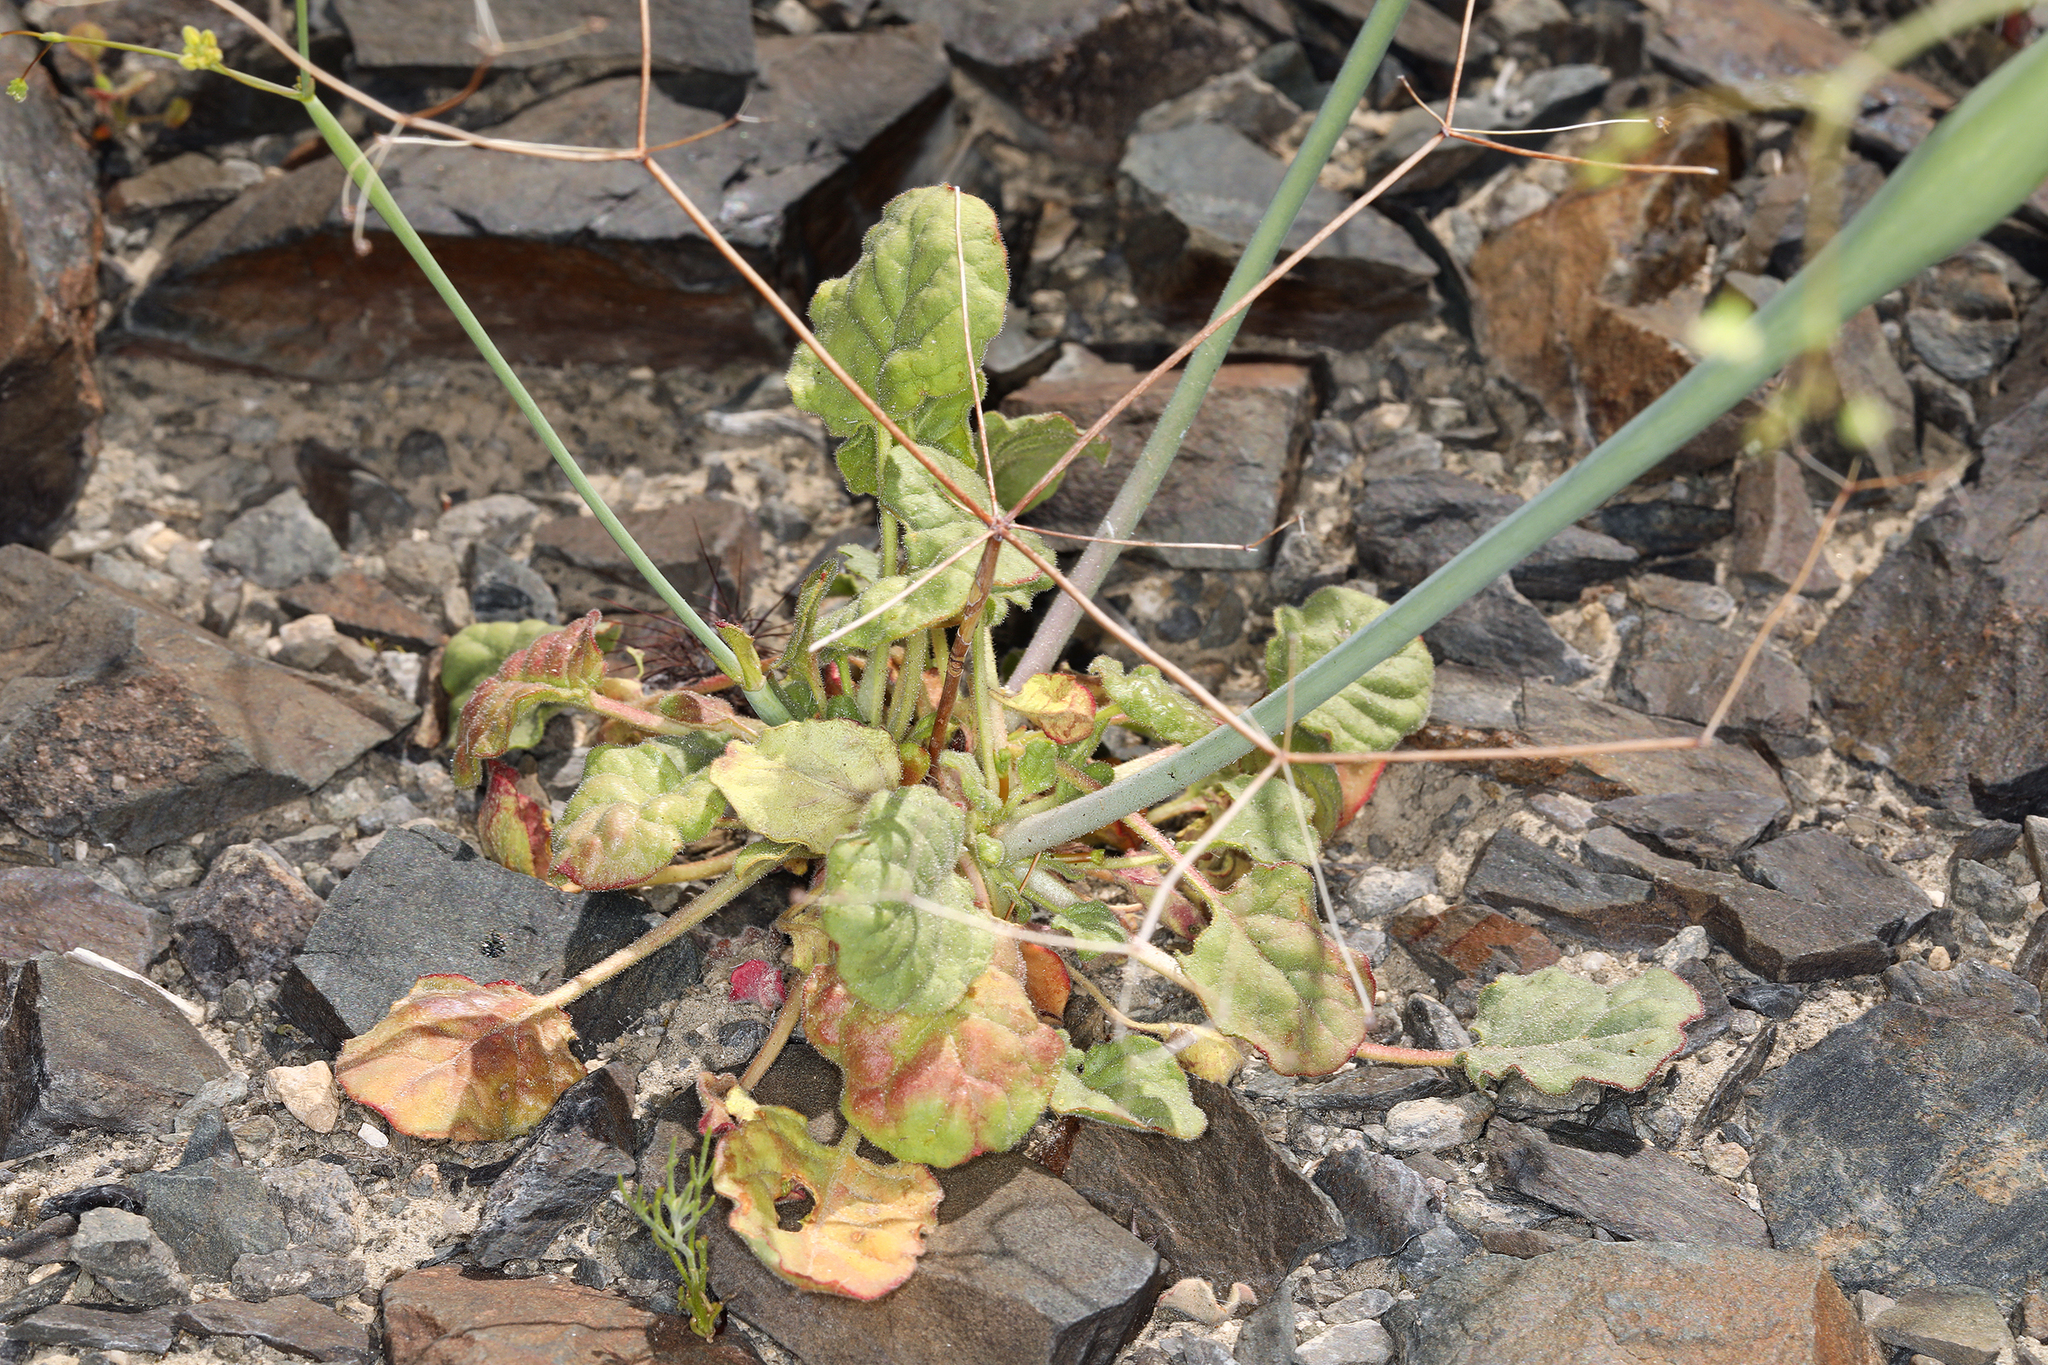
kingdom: Plantae
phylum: Tracheophyta
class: Magnoliopsida
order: Caryophyllales
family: Polygonaceae
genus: Eriogonum
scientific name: Eriogonum inflatum
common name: Desert trumpet
